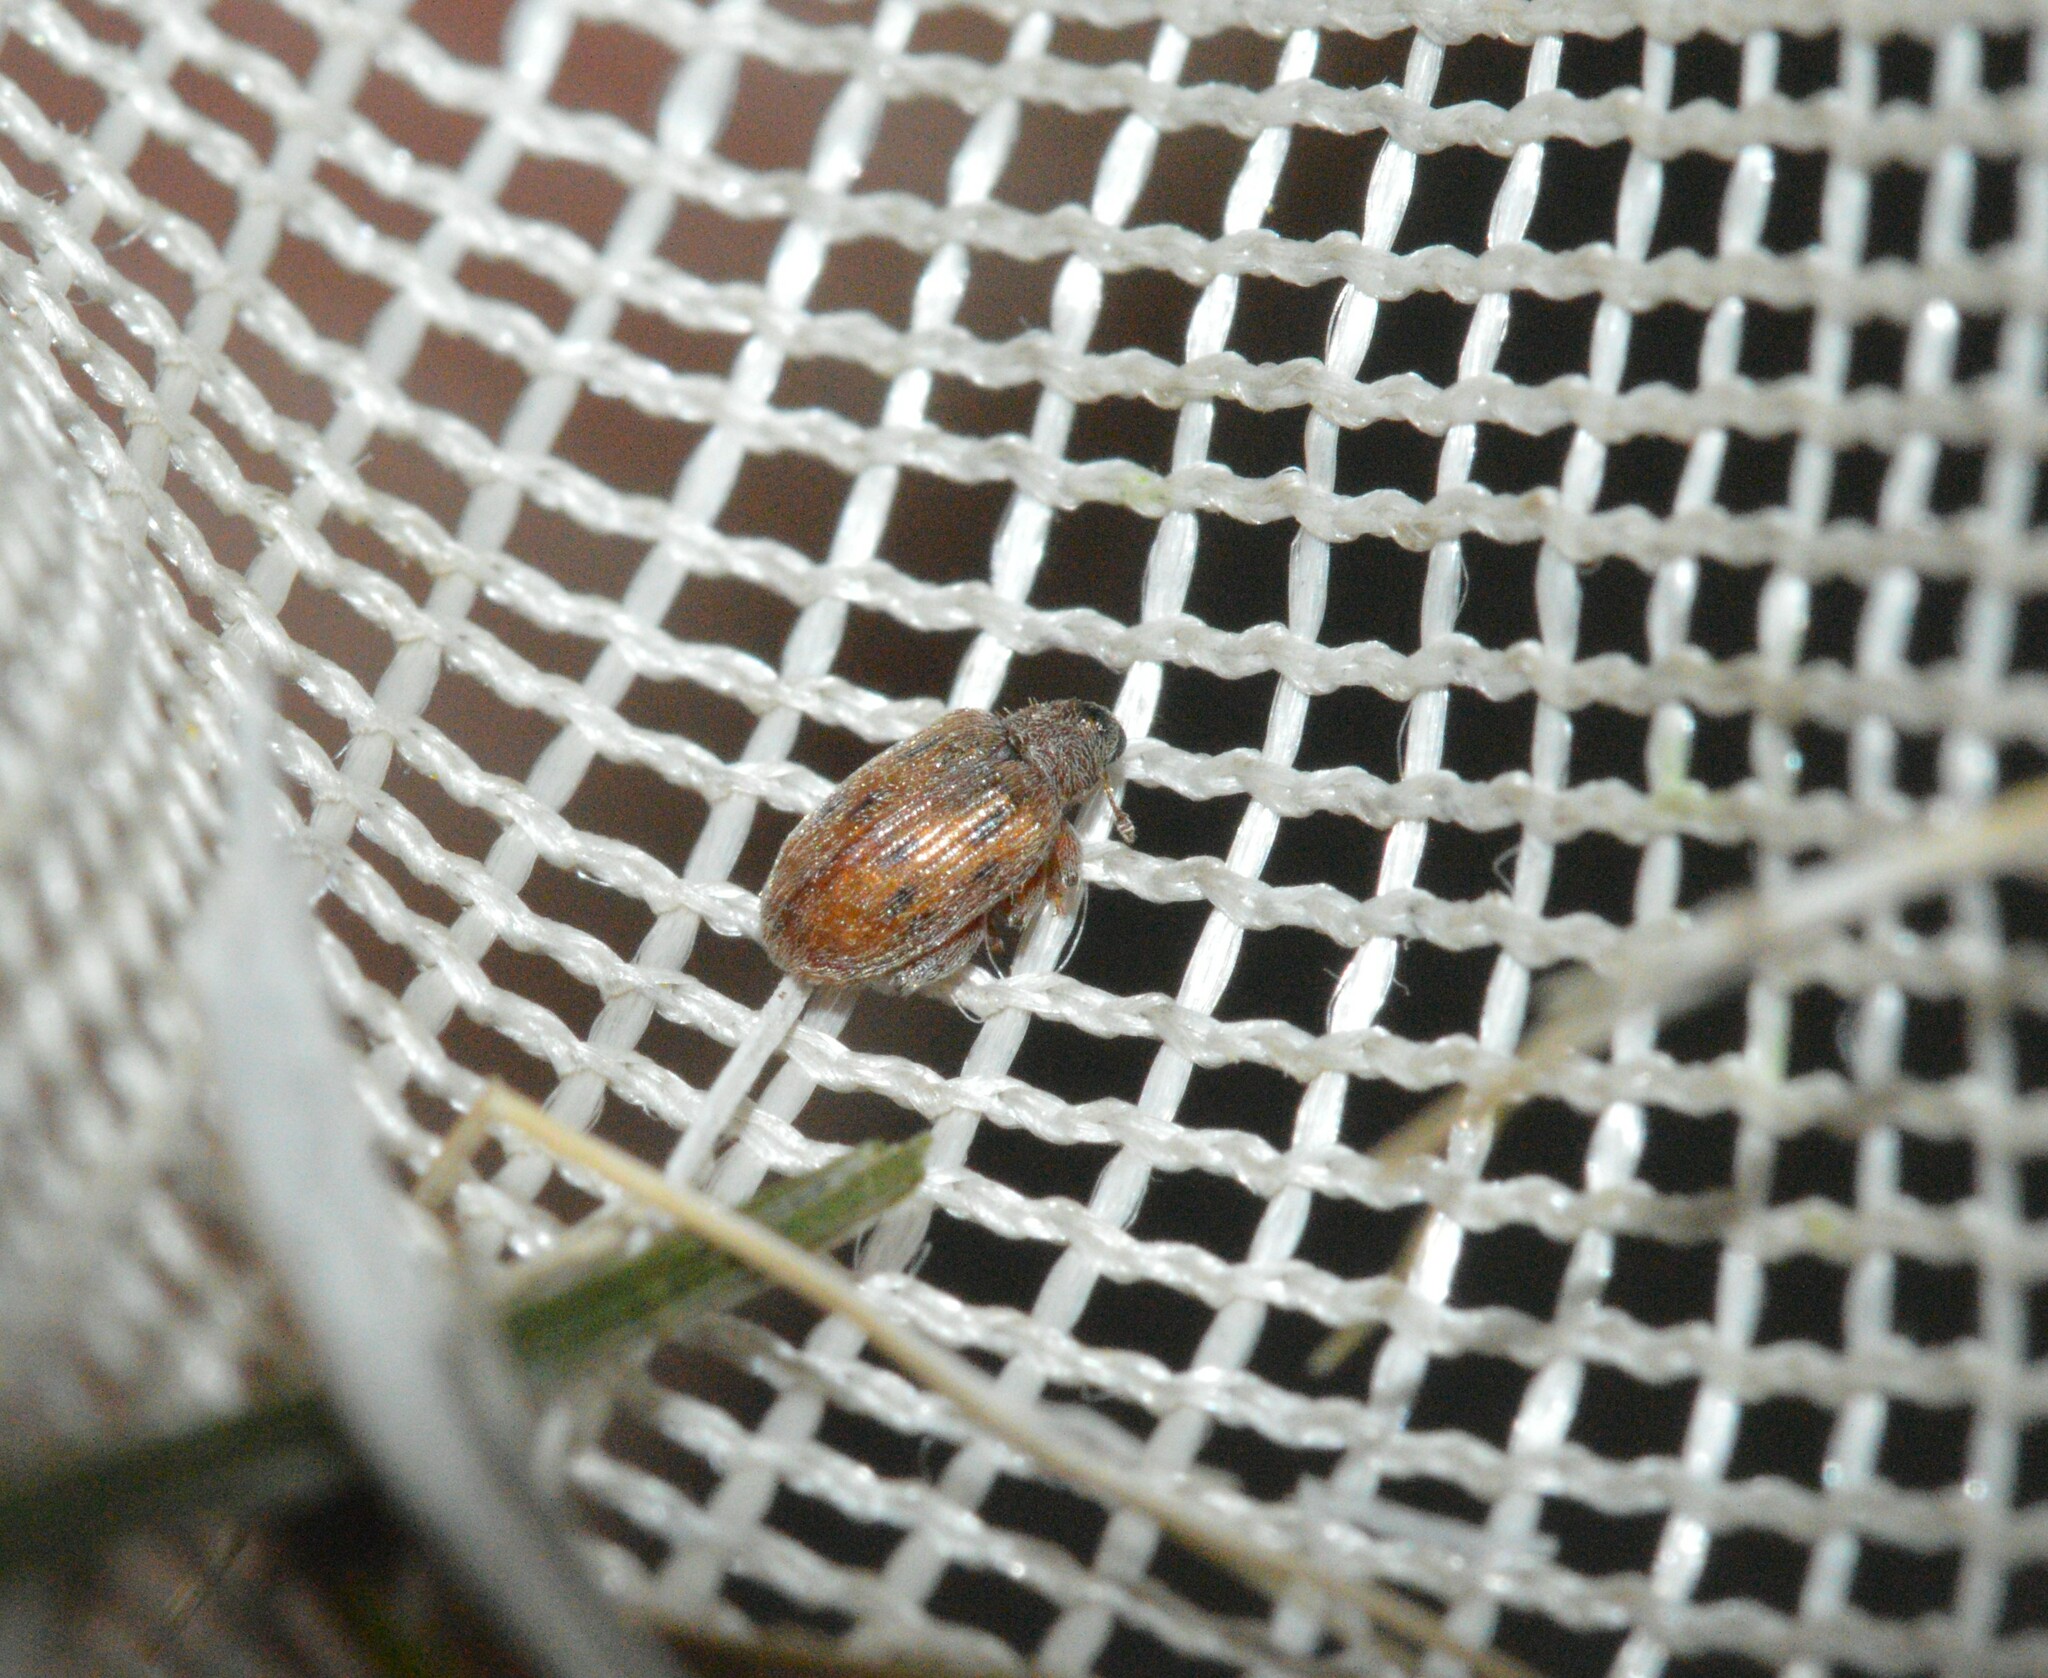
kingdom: Animalia
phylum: Arthropoda
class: Insecta
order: Coleoptera
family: Curculionidae
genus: Orchestes
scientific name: Orchestes steppensis
